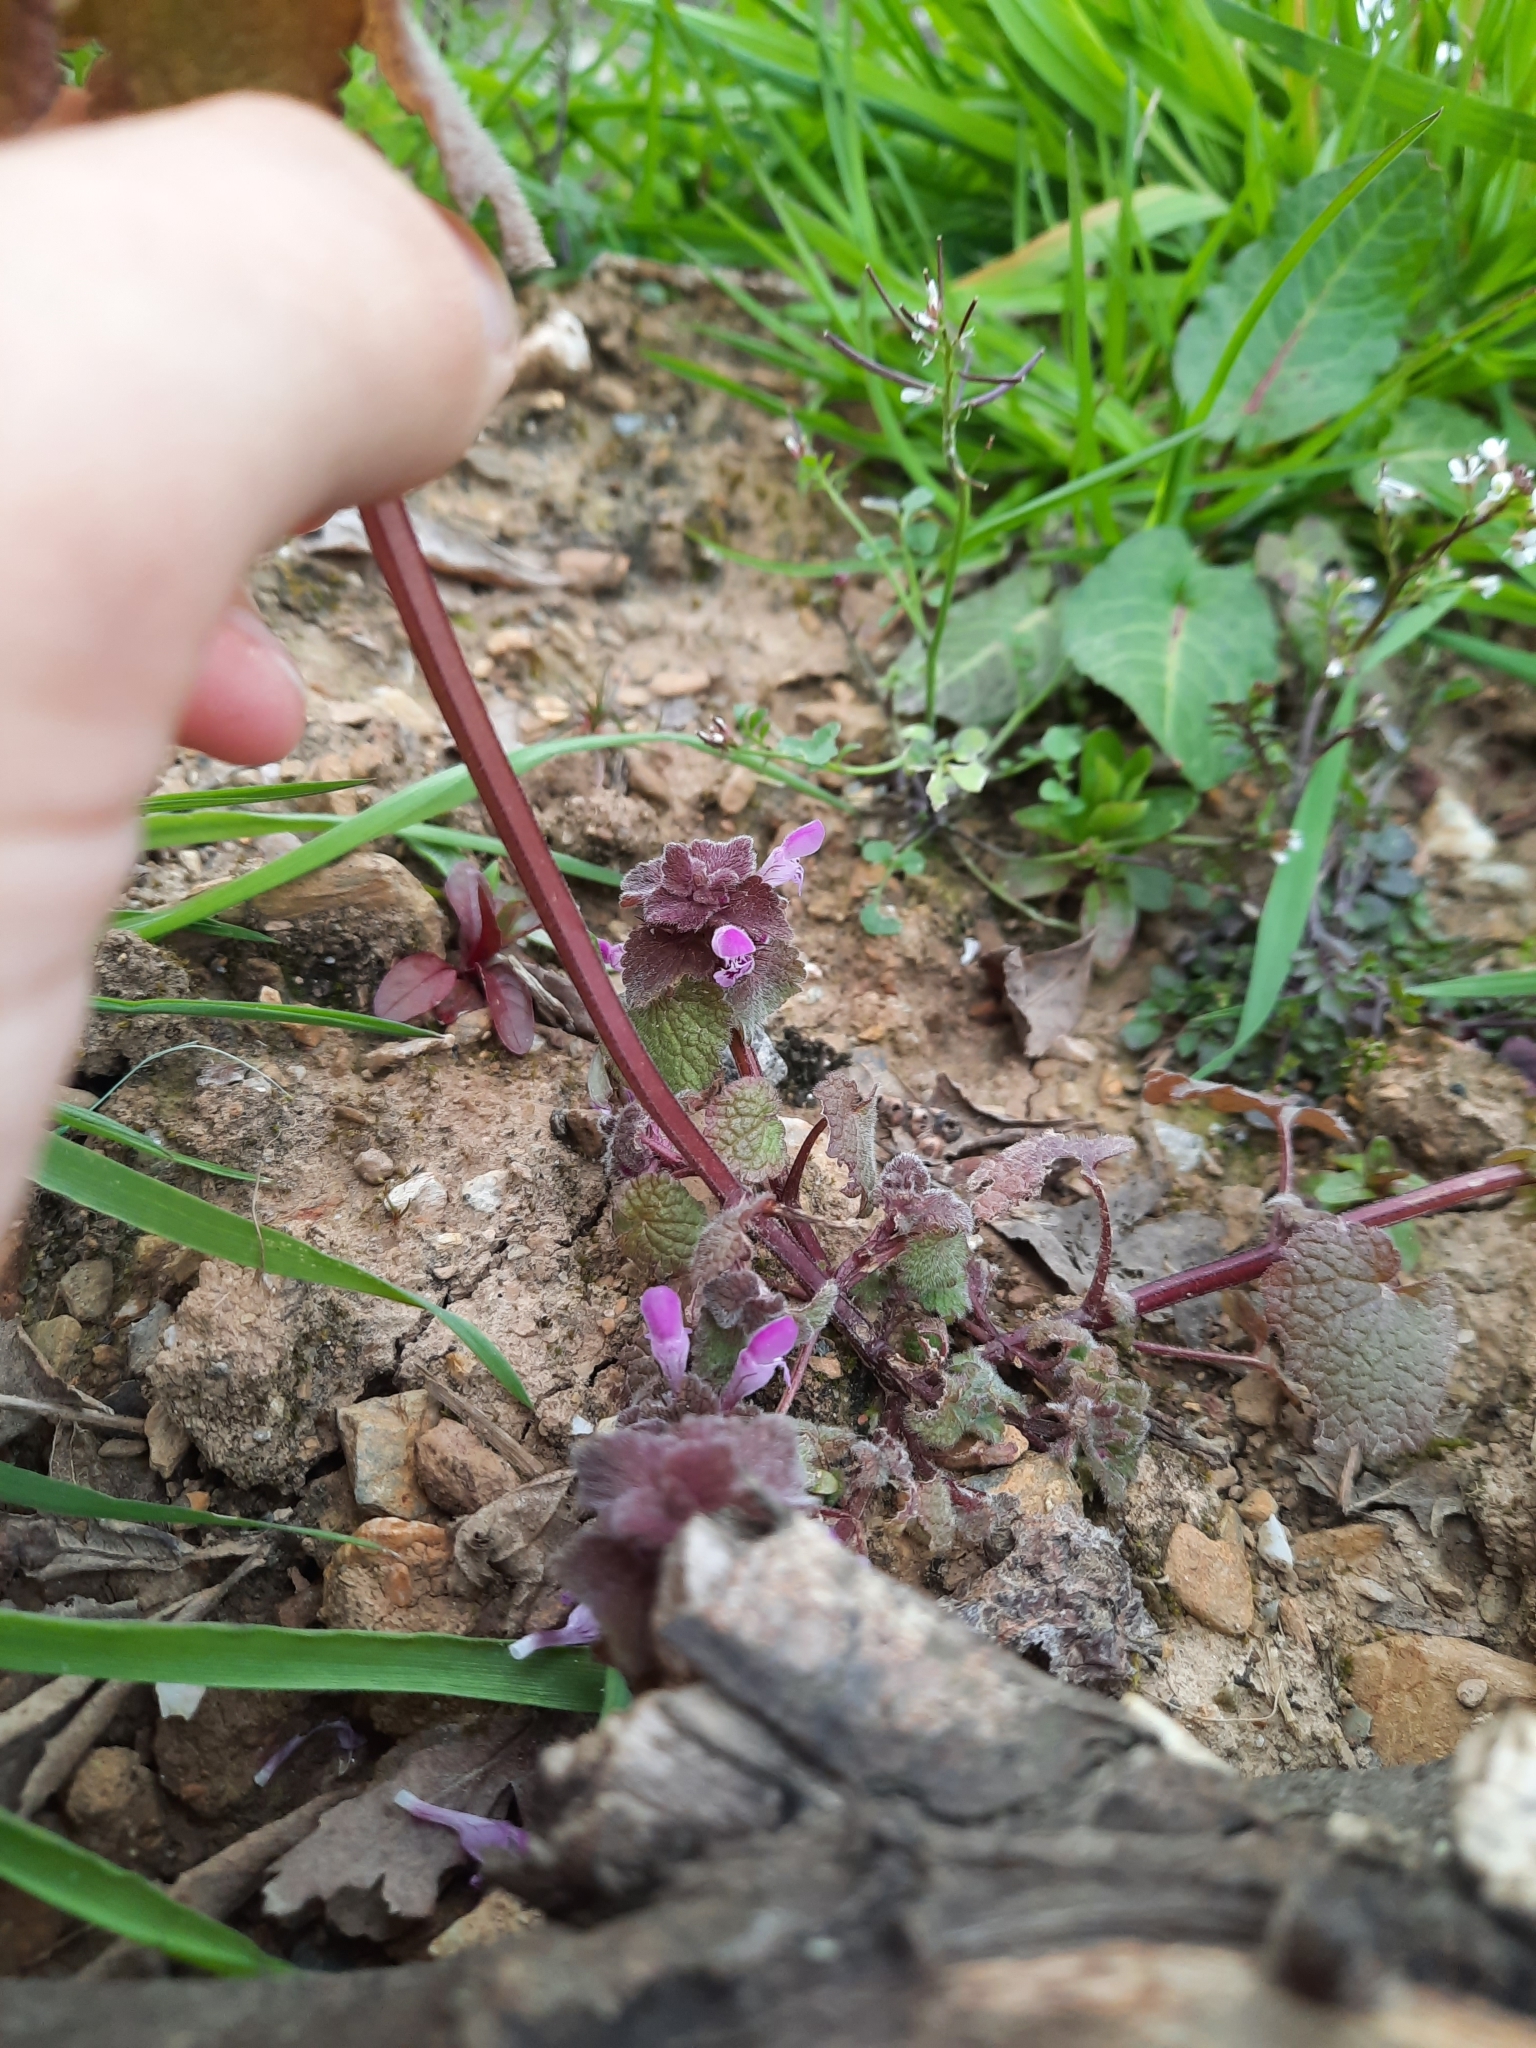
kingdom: Plantae
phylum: Tracheophyta
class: Magnoliopsida
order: Lamiales
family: Lamiaceae
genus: Lamium
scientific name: Lamium purpureum
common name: Red dead-nettle
